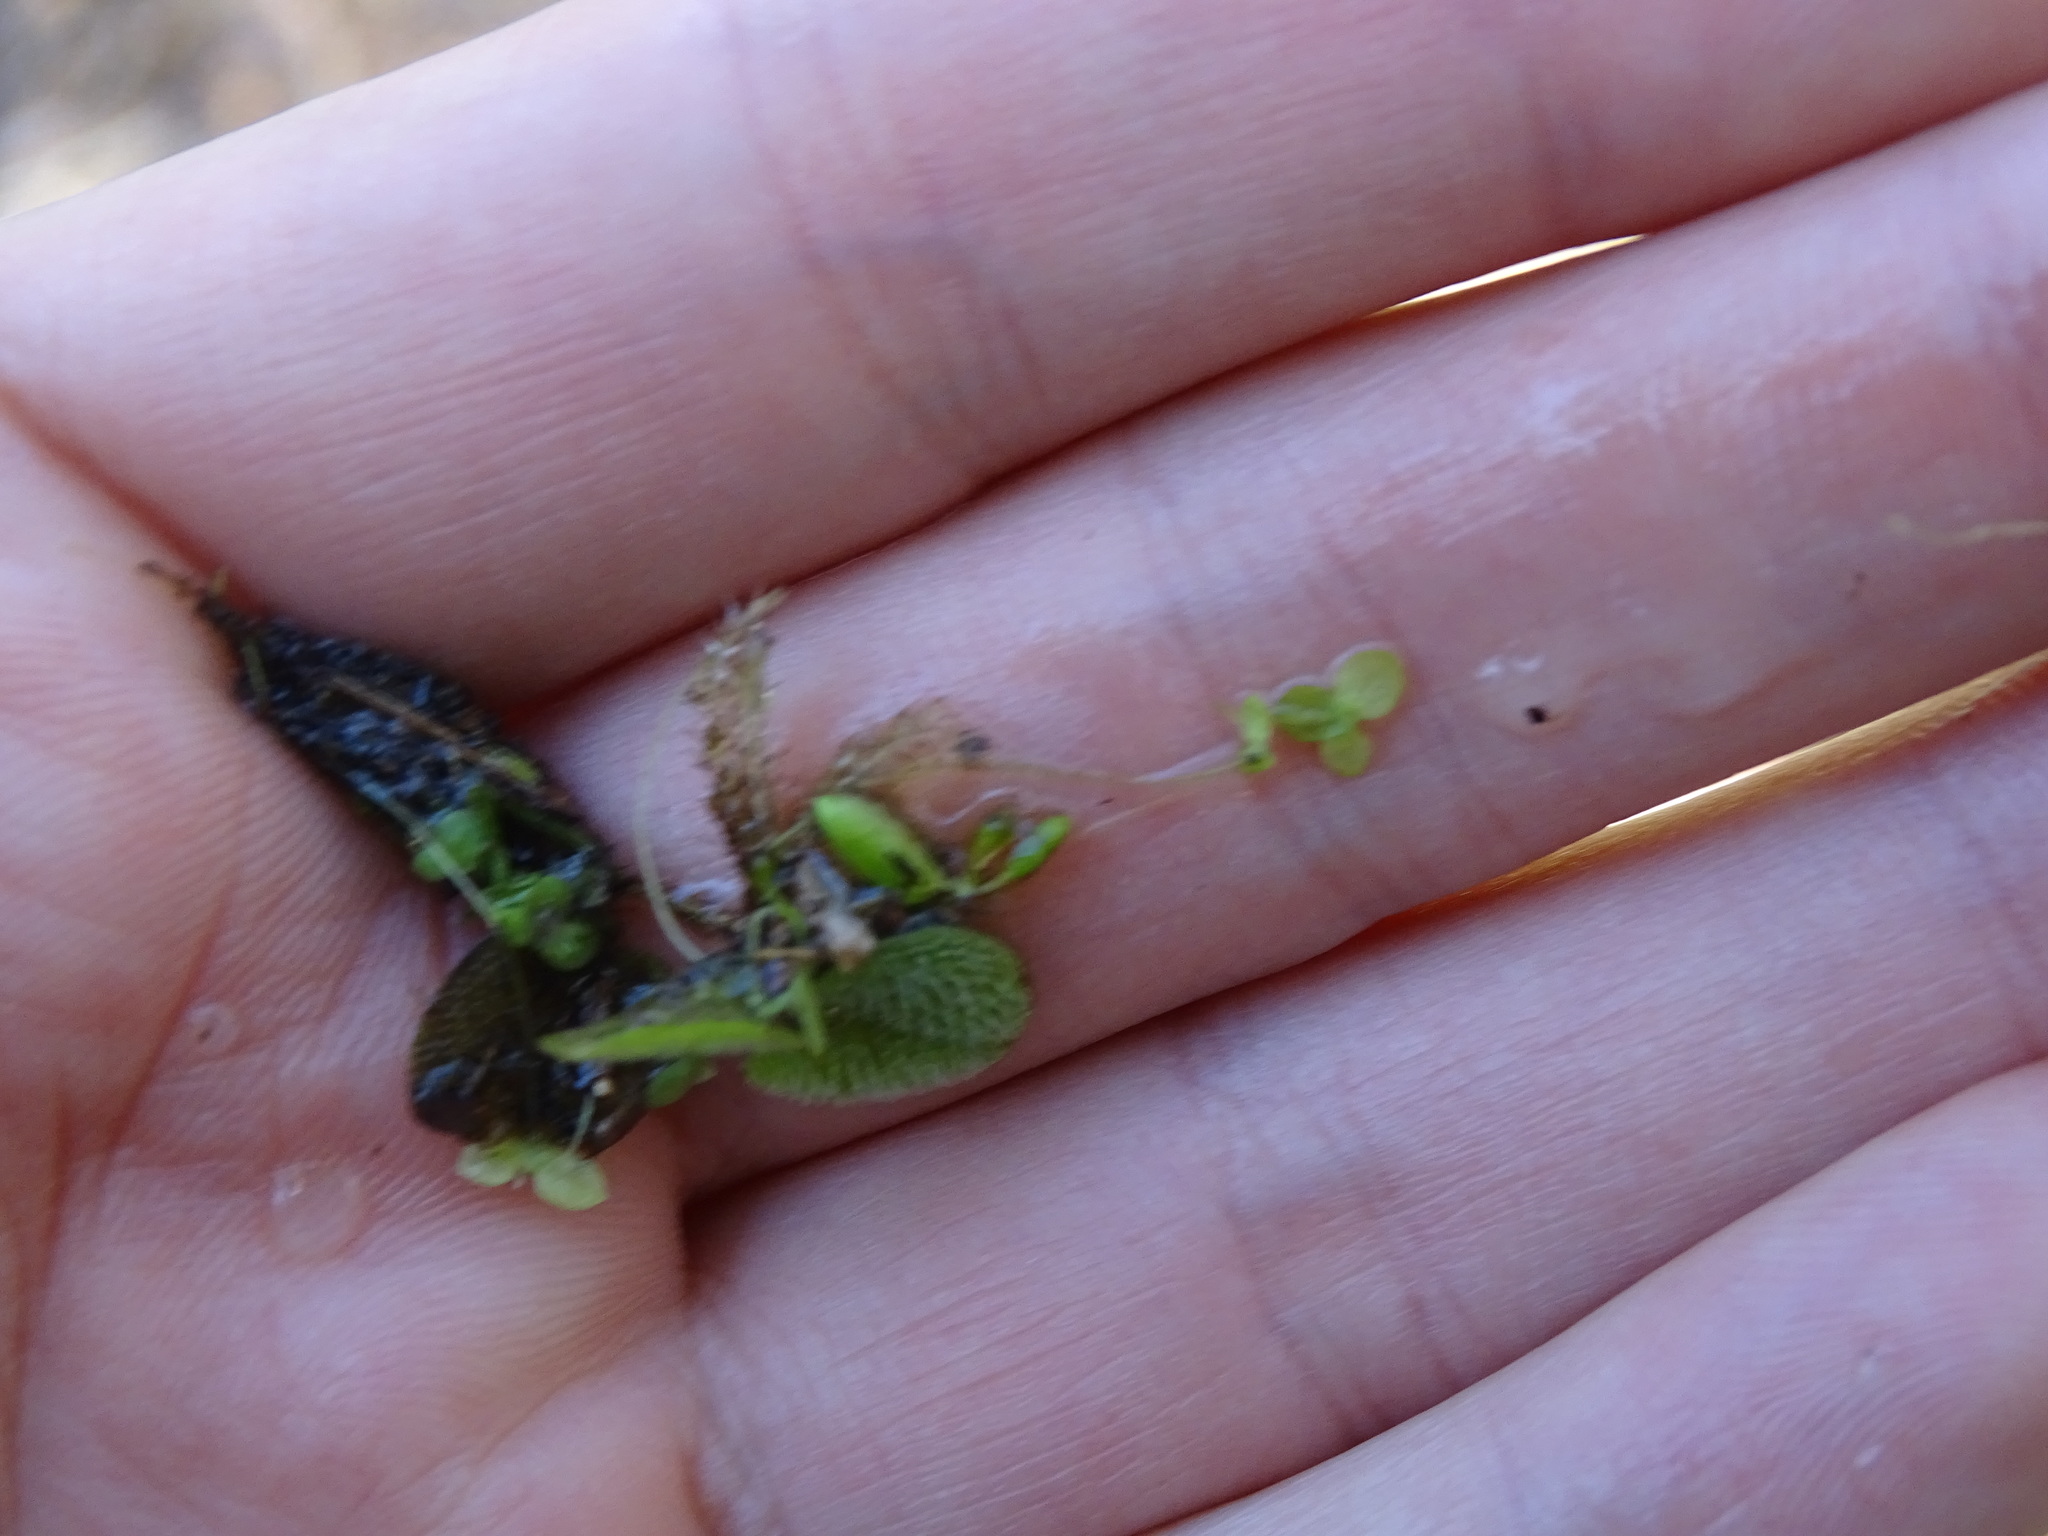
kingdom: Plantae
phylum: Tracheophyta
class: Polypodiopsida
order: Salviniales
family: Salviniaceae
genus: Salvinia
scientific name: Salvinia minima
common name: Water spangles
